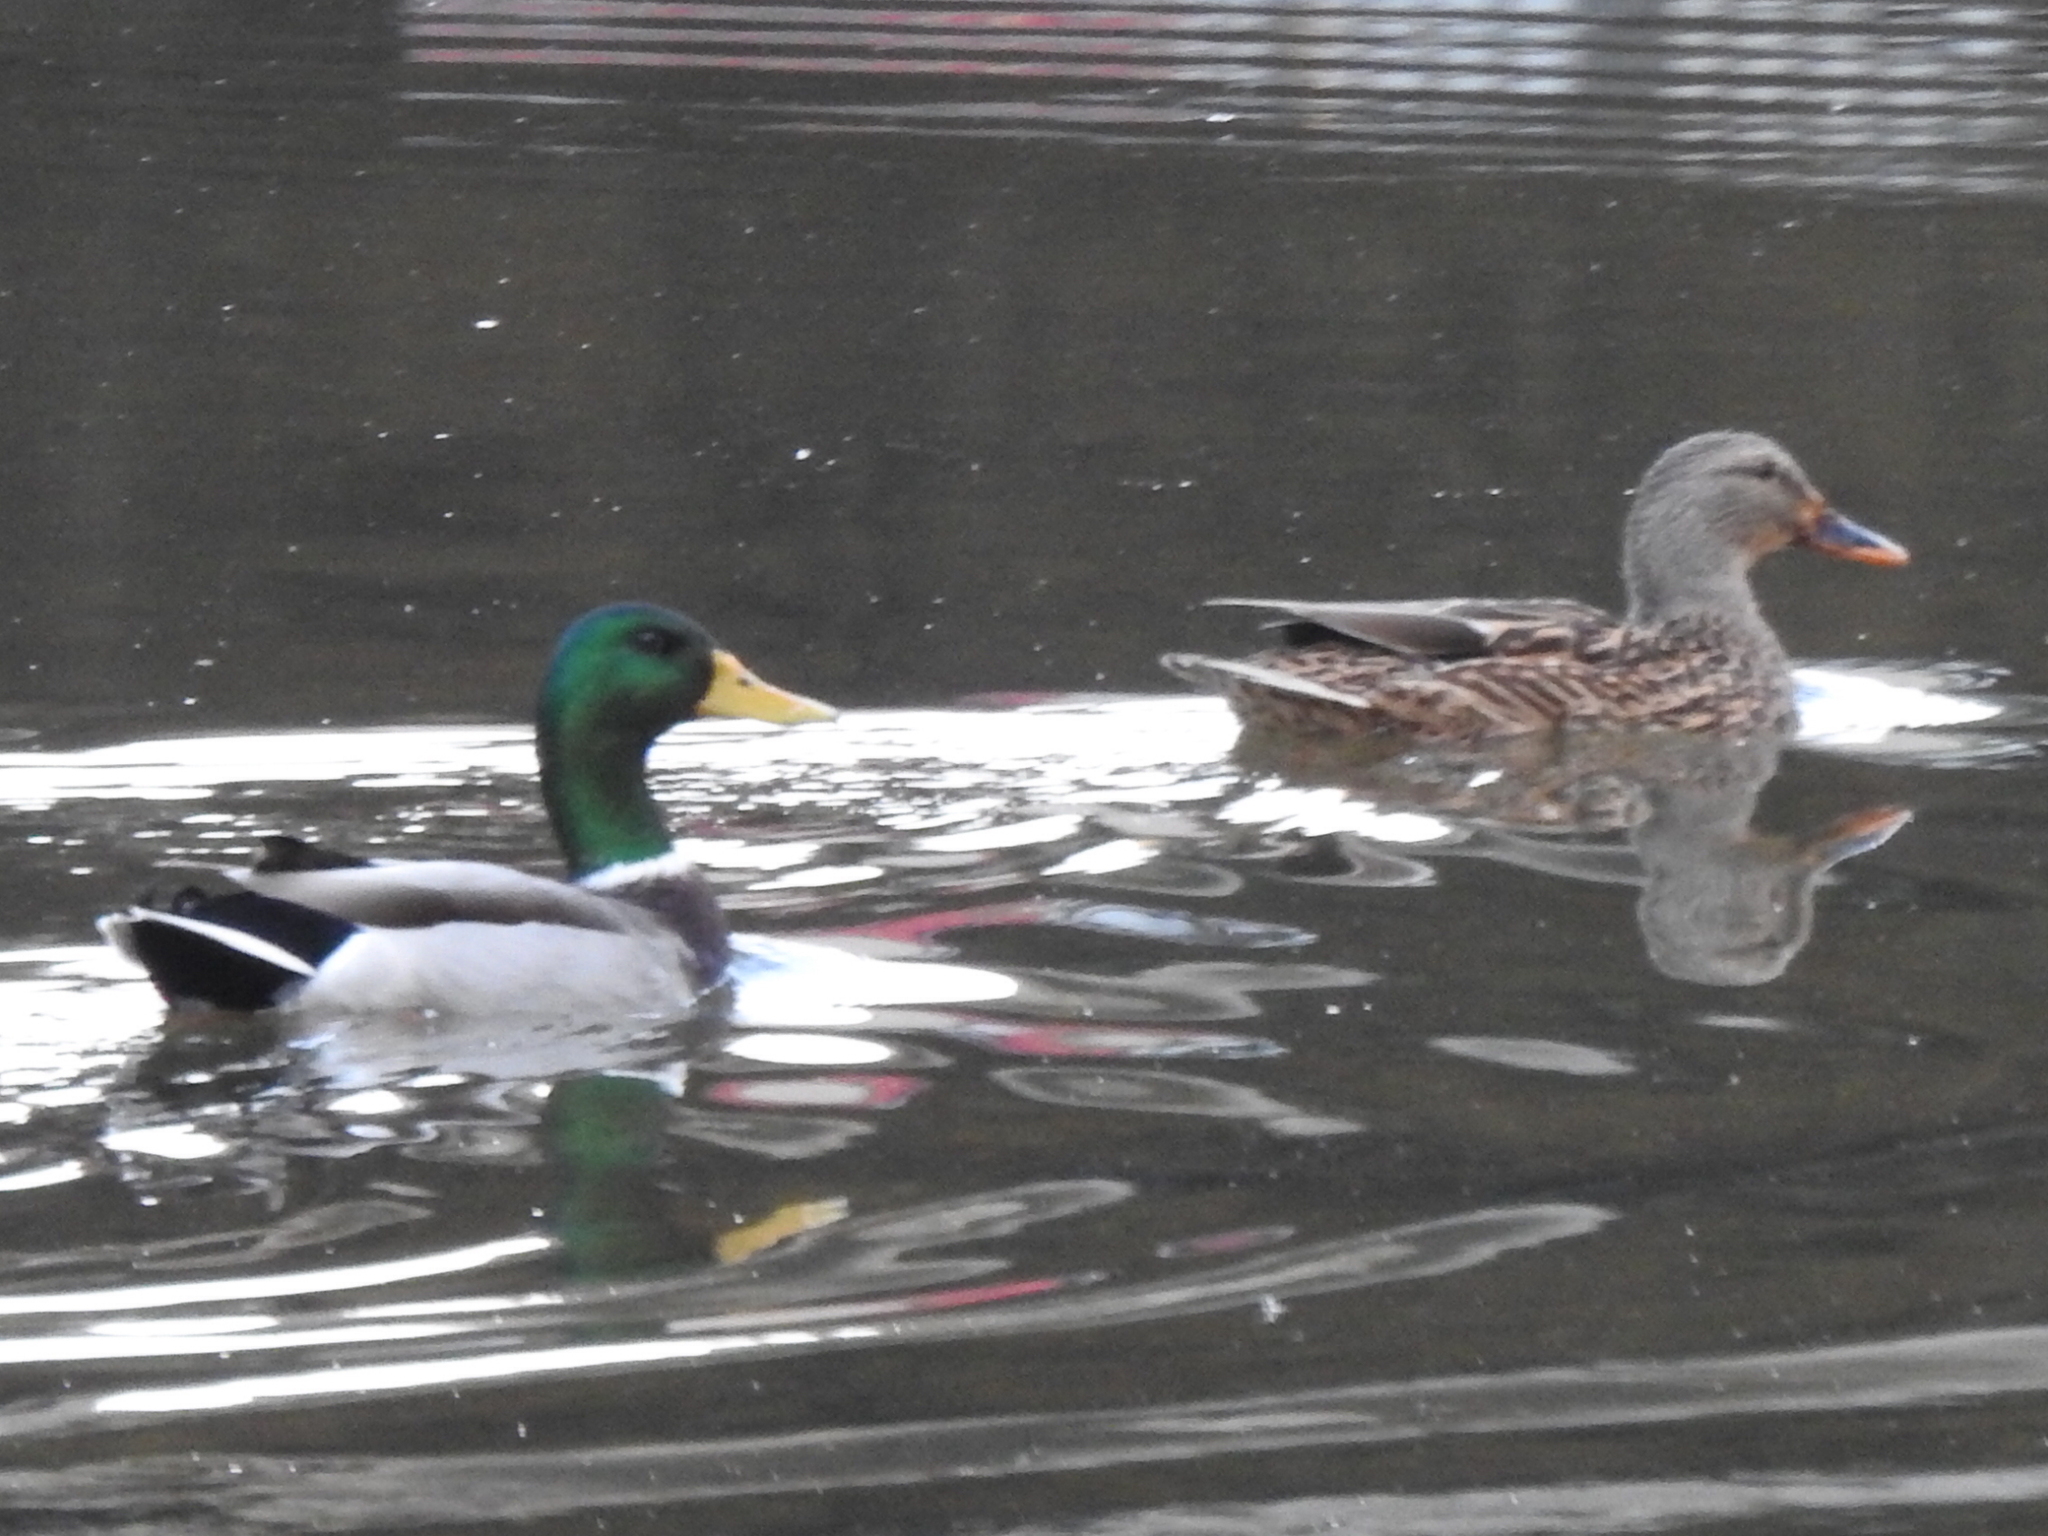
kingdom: Animalia
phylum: Chordata
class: Aves
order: Anseriformes
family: Anatidae
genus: Anas
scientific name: Anas platyrhynchos
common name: Mallard
